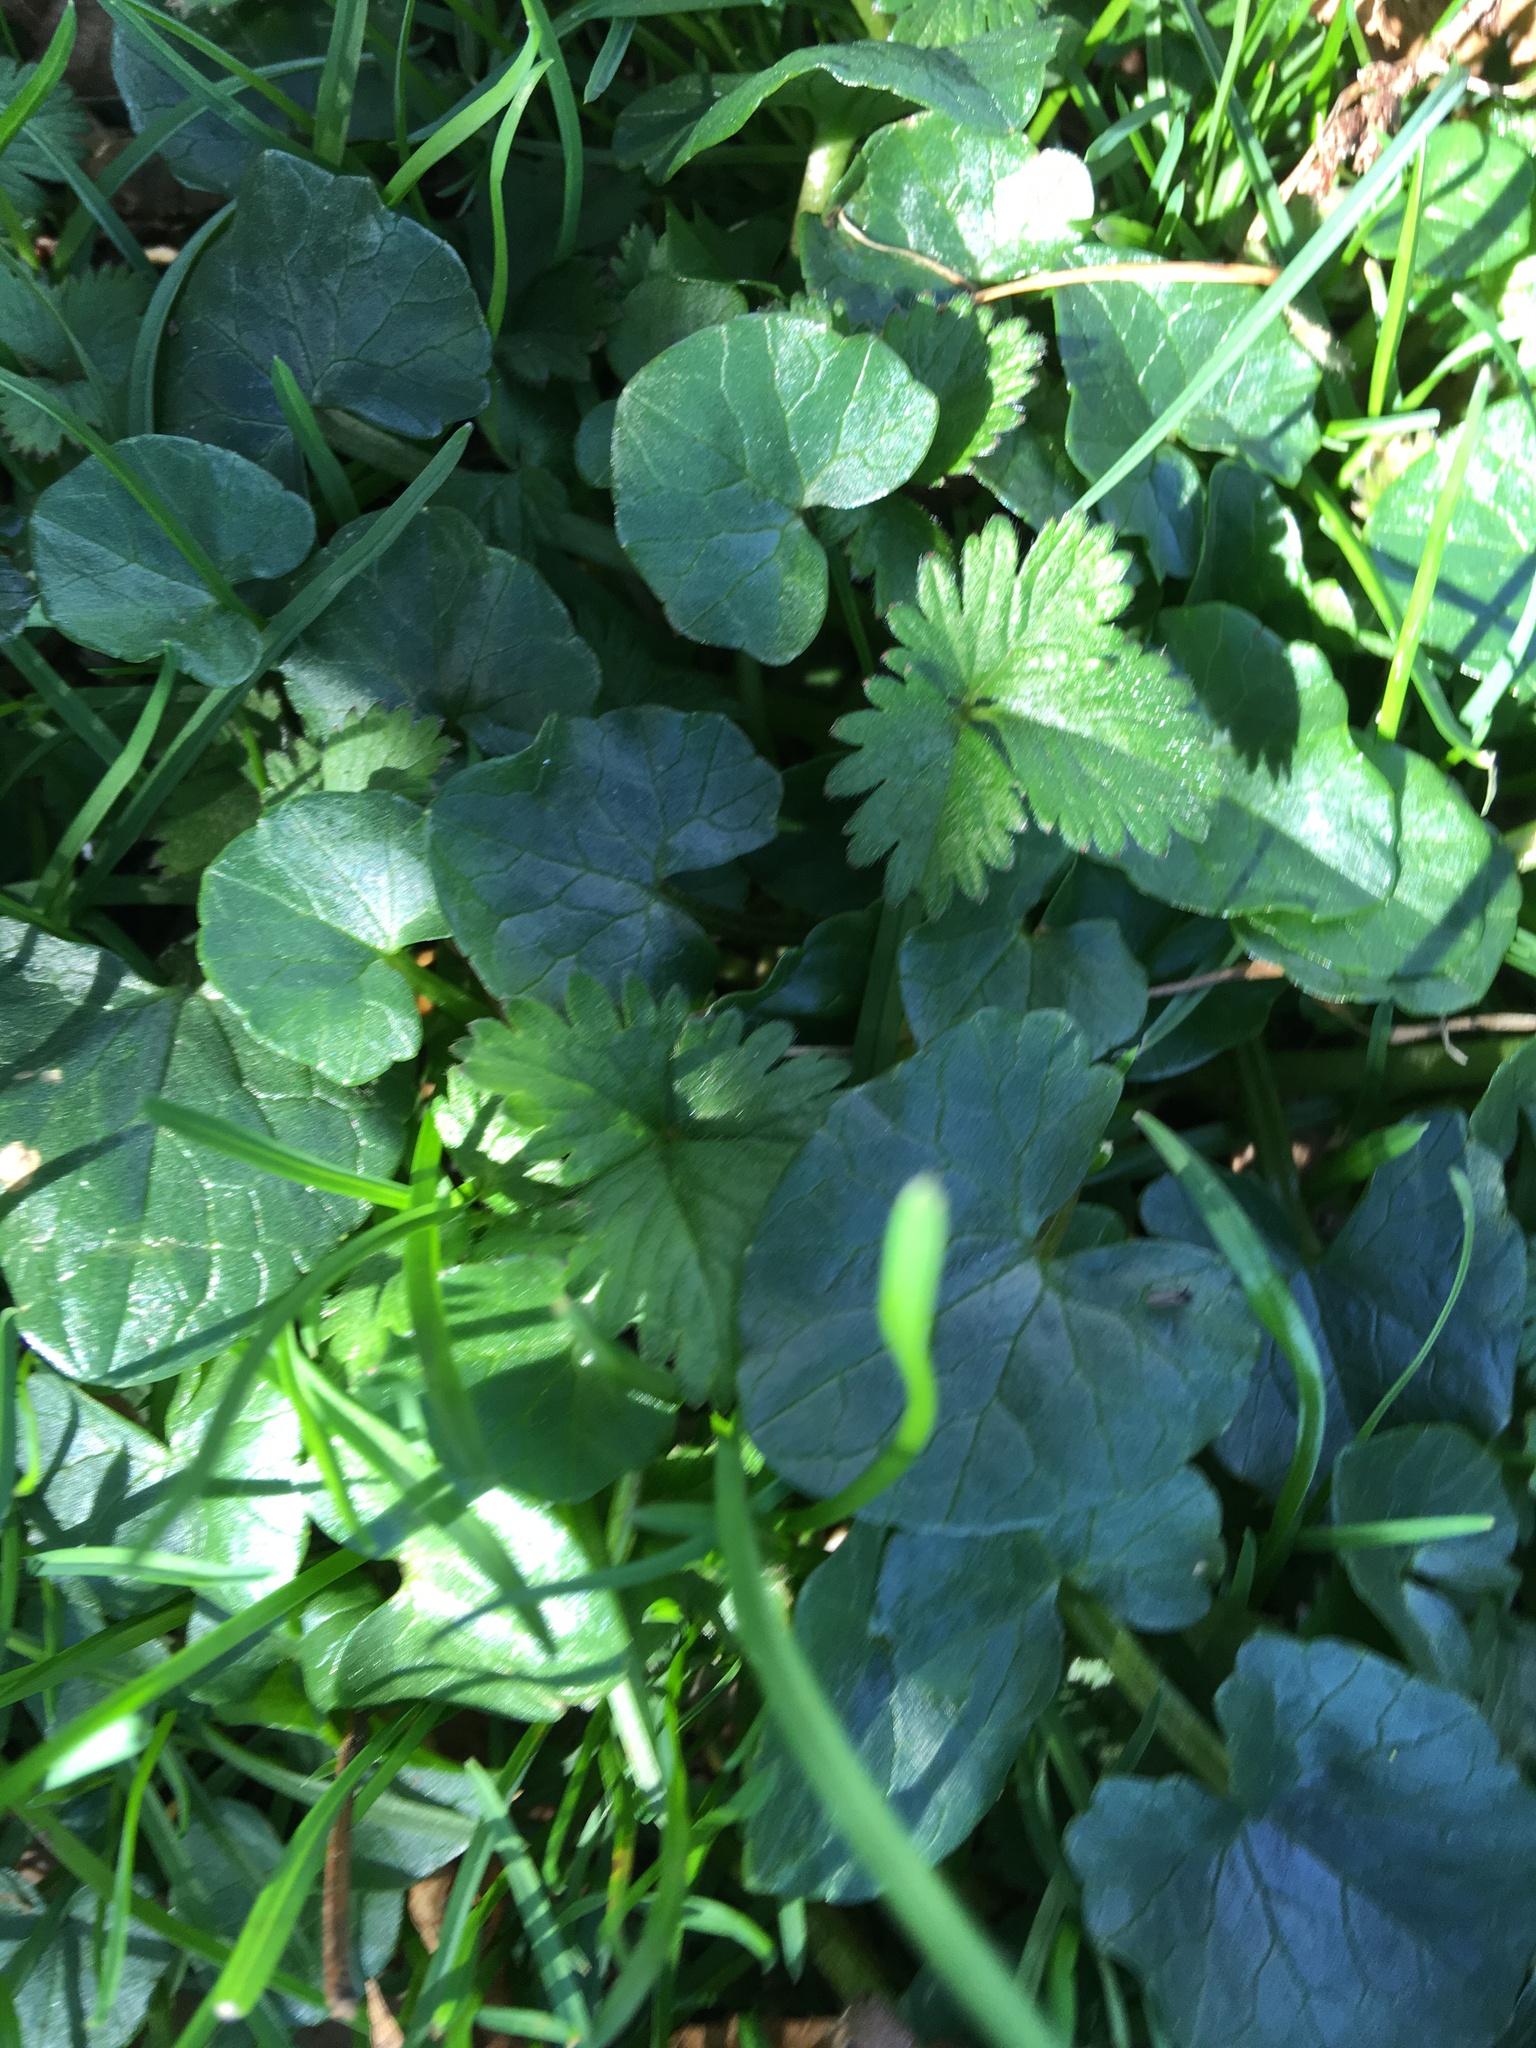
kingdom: Plantae
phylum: Tracheophyta
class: Magnoliopsida
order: Ranunculales
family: Ranunculaceae
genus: Ficaria
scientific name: Ficaria verna
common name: Lesser celandine
